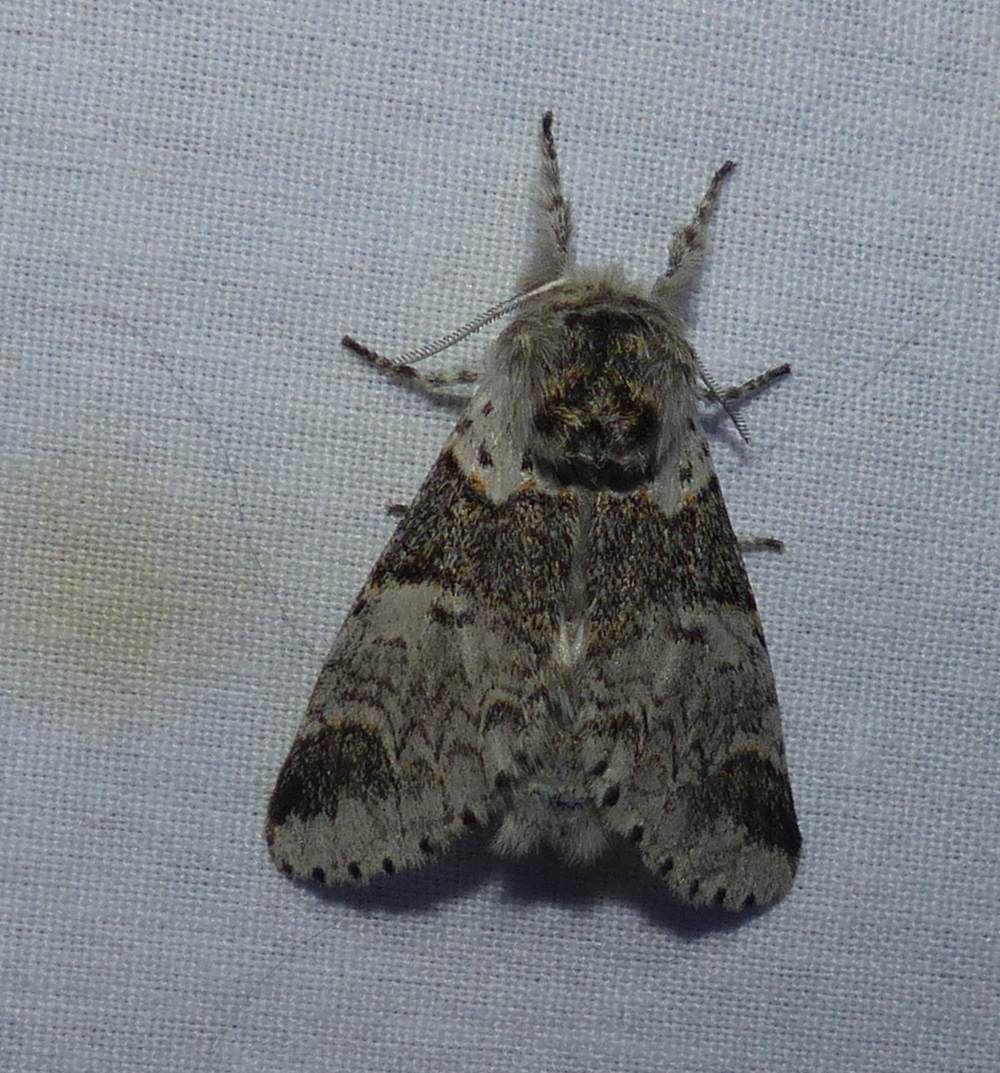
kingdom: Animalia
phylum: Arthropoda
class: Insecta
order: Lepidoptera
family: Notodontidae
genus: Furcula
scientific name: Furcula occidentalis
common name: Western furcula moth
